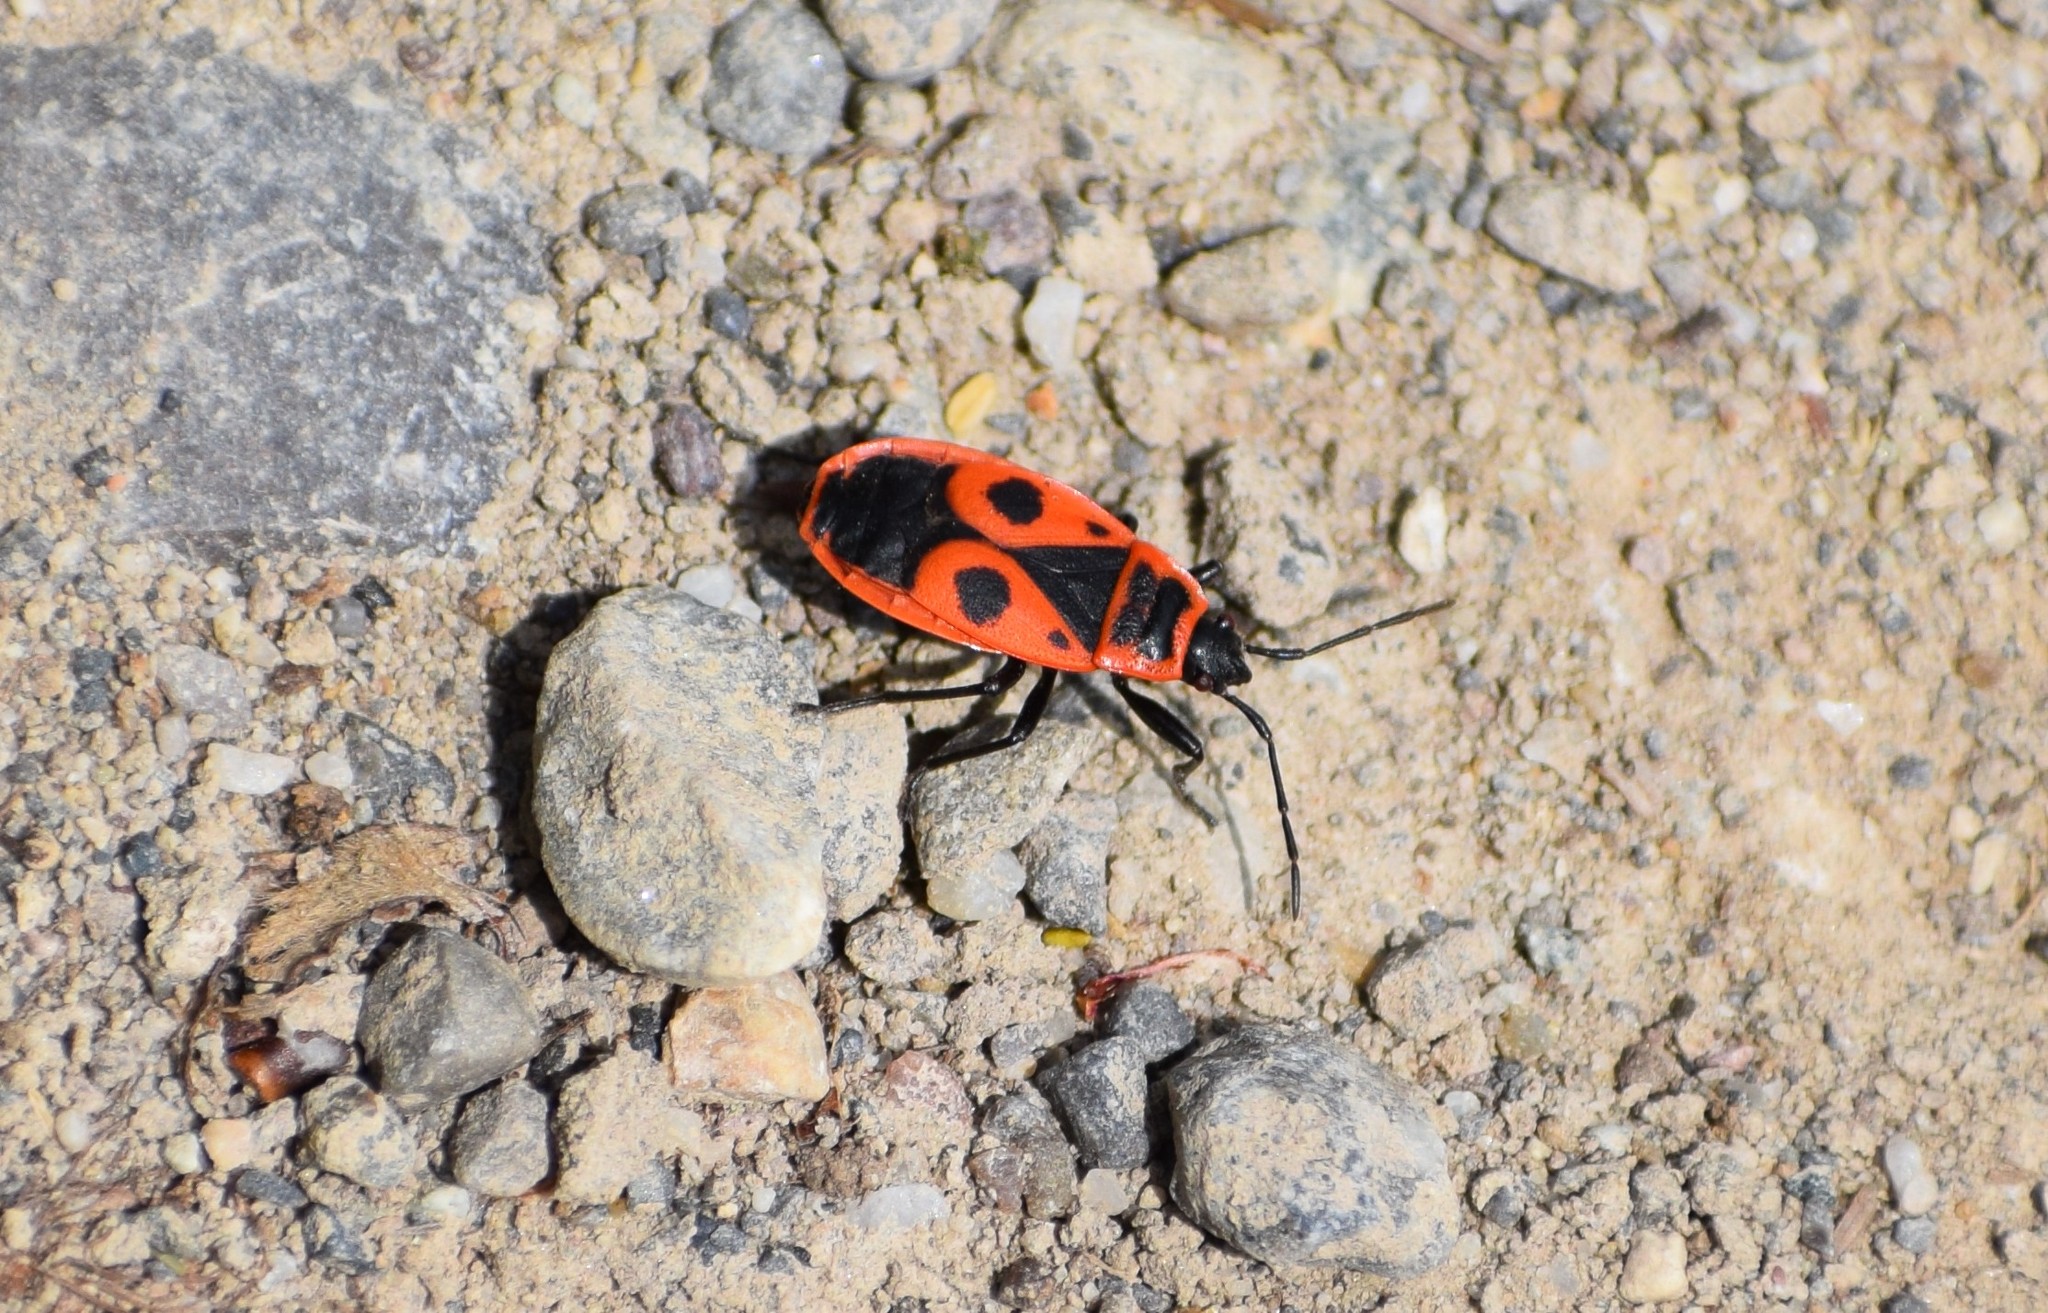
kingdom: Animalia
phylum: Arthropoda
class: Insecta
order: Hemiptera
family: Pyrrhocoridae
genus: Pyrrhocoris
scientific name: Pyrrhocoris apterus
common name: Firebug
